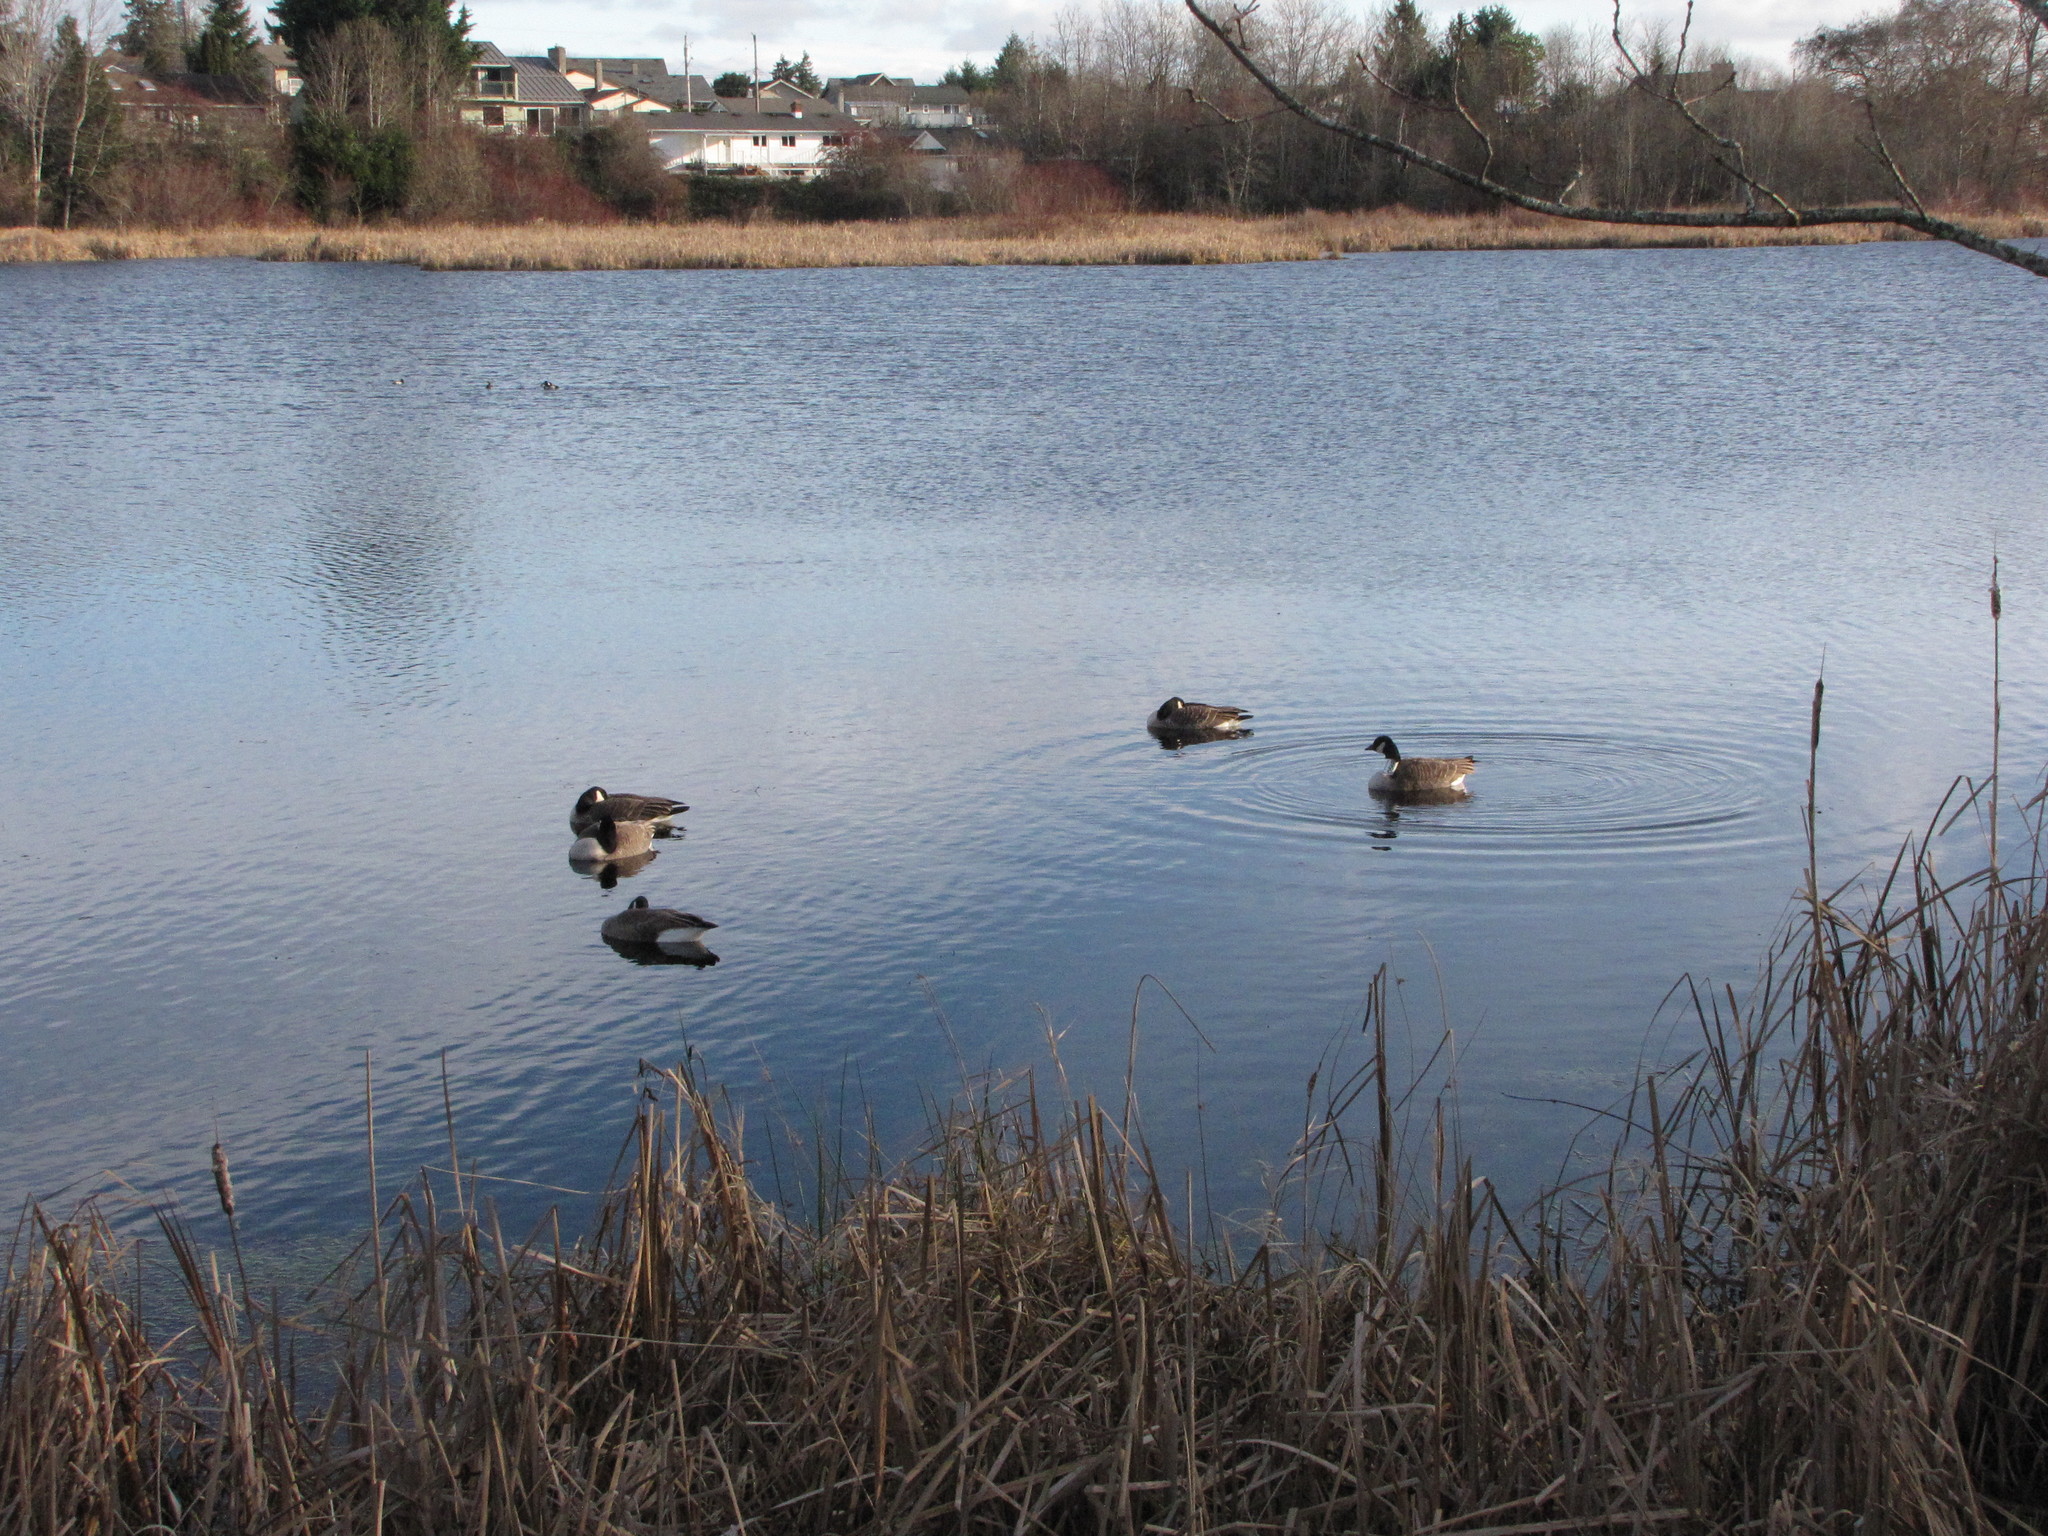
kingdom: Animalia
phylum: Chordata
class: Aves
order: Anseriformes
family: Anatidae
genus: Branta
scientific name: Branta canadensis
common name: Canada goose
